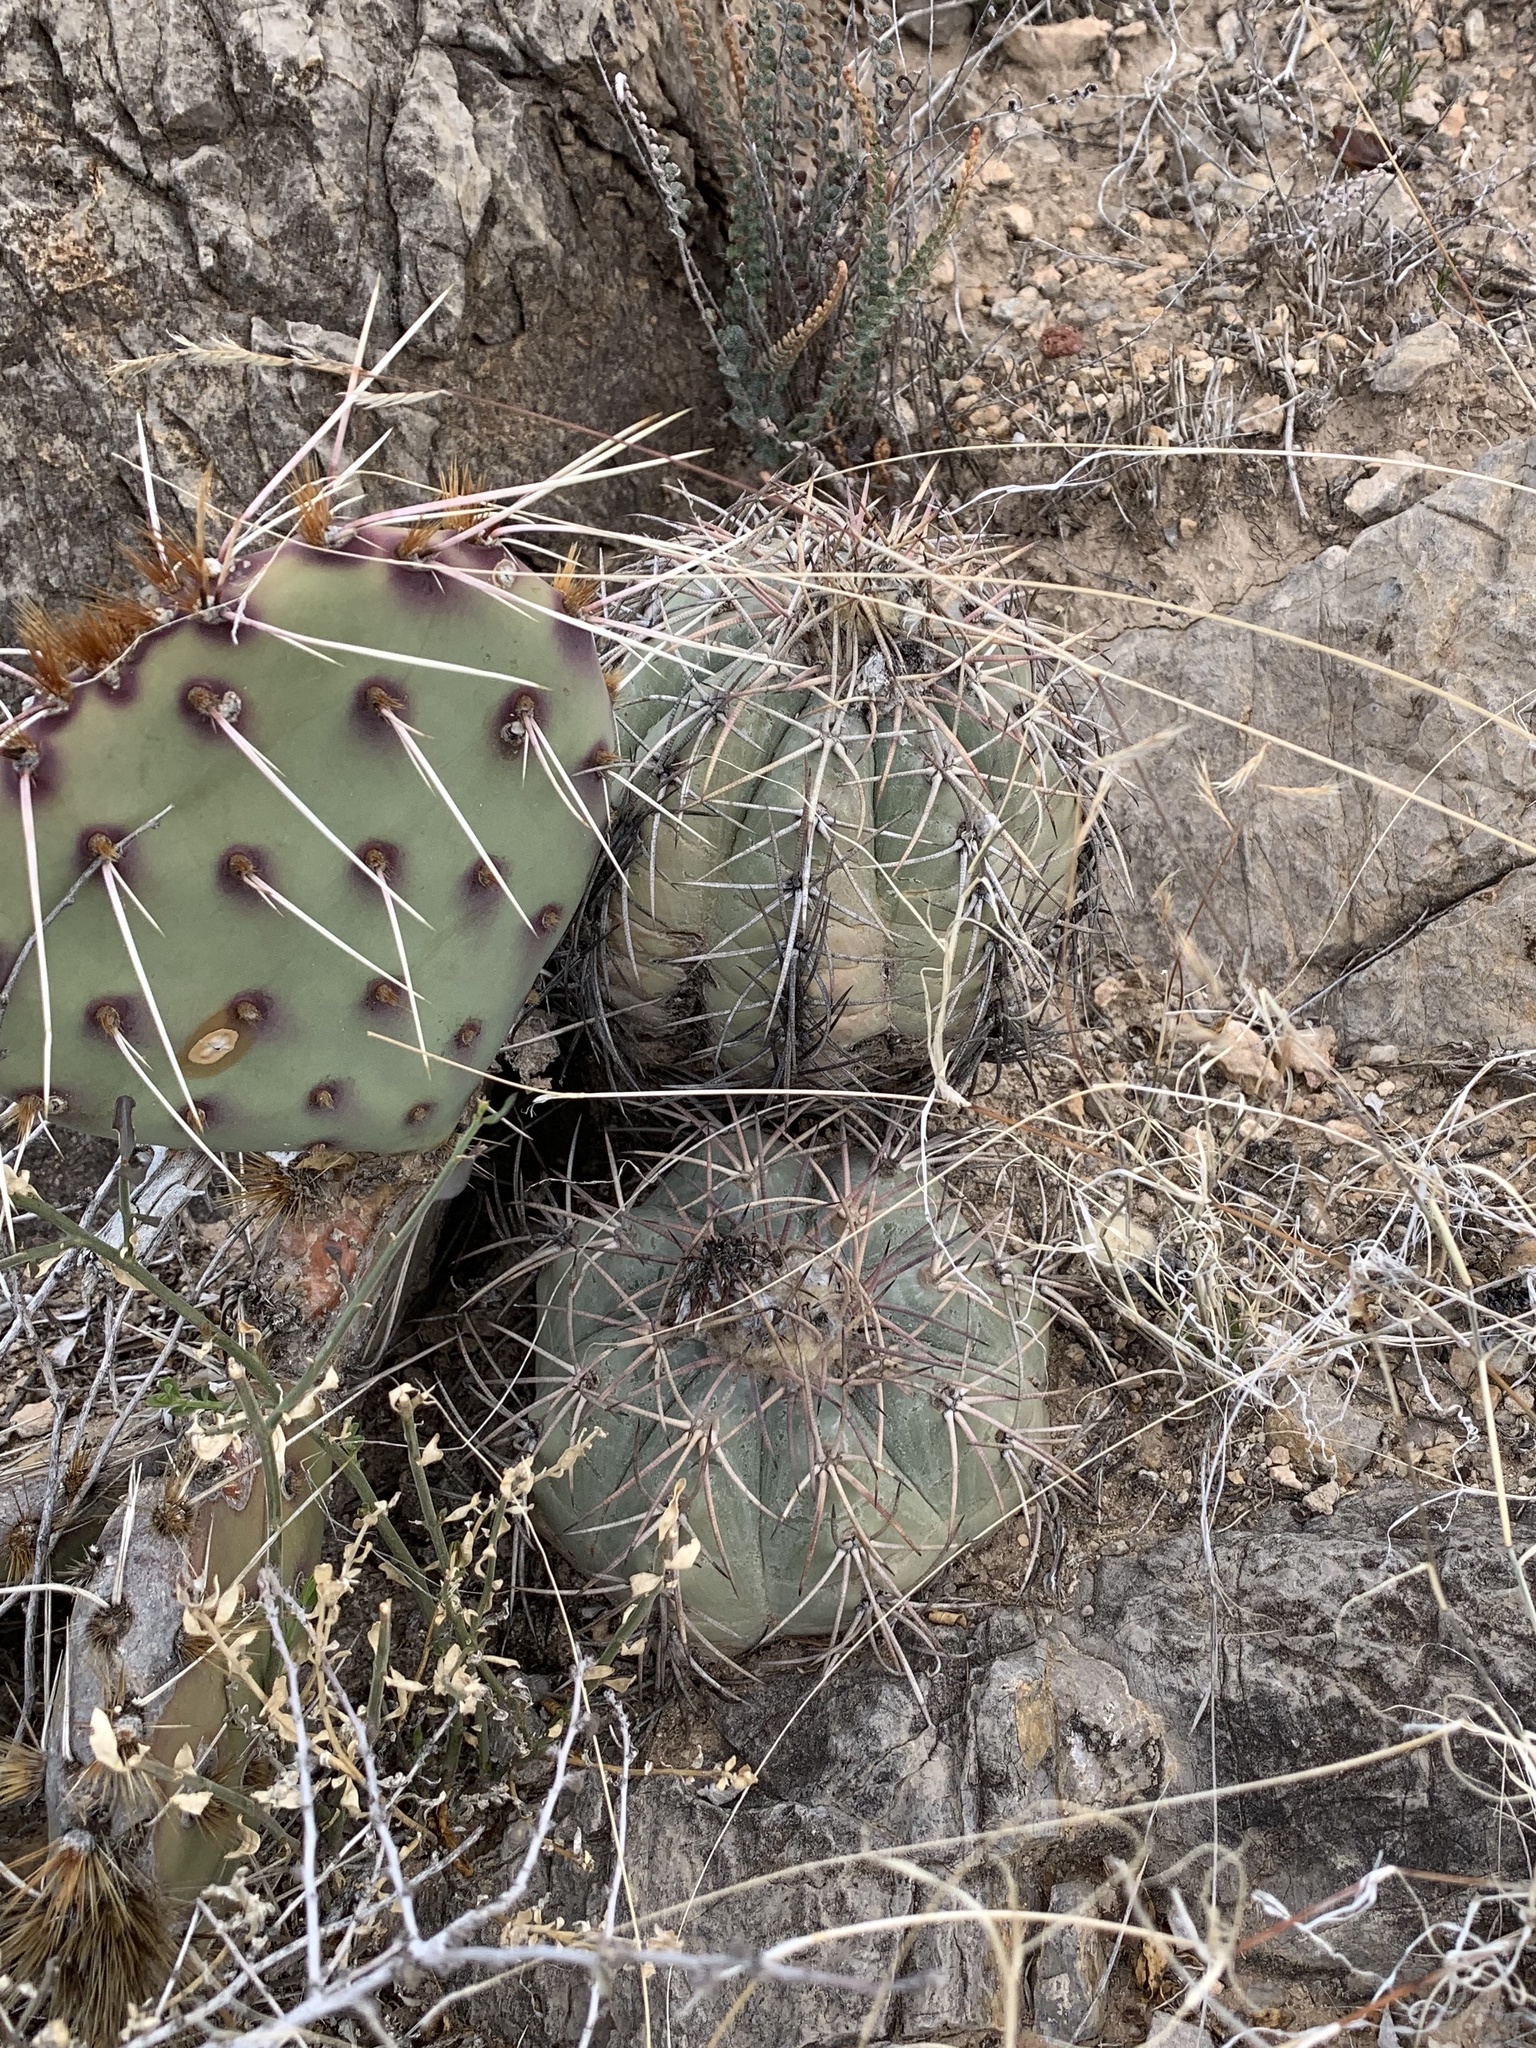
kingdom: Plantae
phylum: Tracheophyta
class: Magnoliopsida
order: Caryophyllales
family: Cactaceae
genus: Echinocactus
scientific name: Echinocactus horizonthalonius
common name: Devilshead
